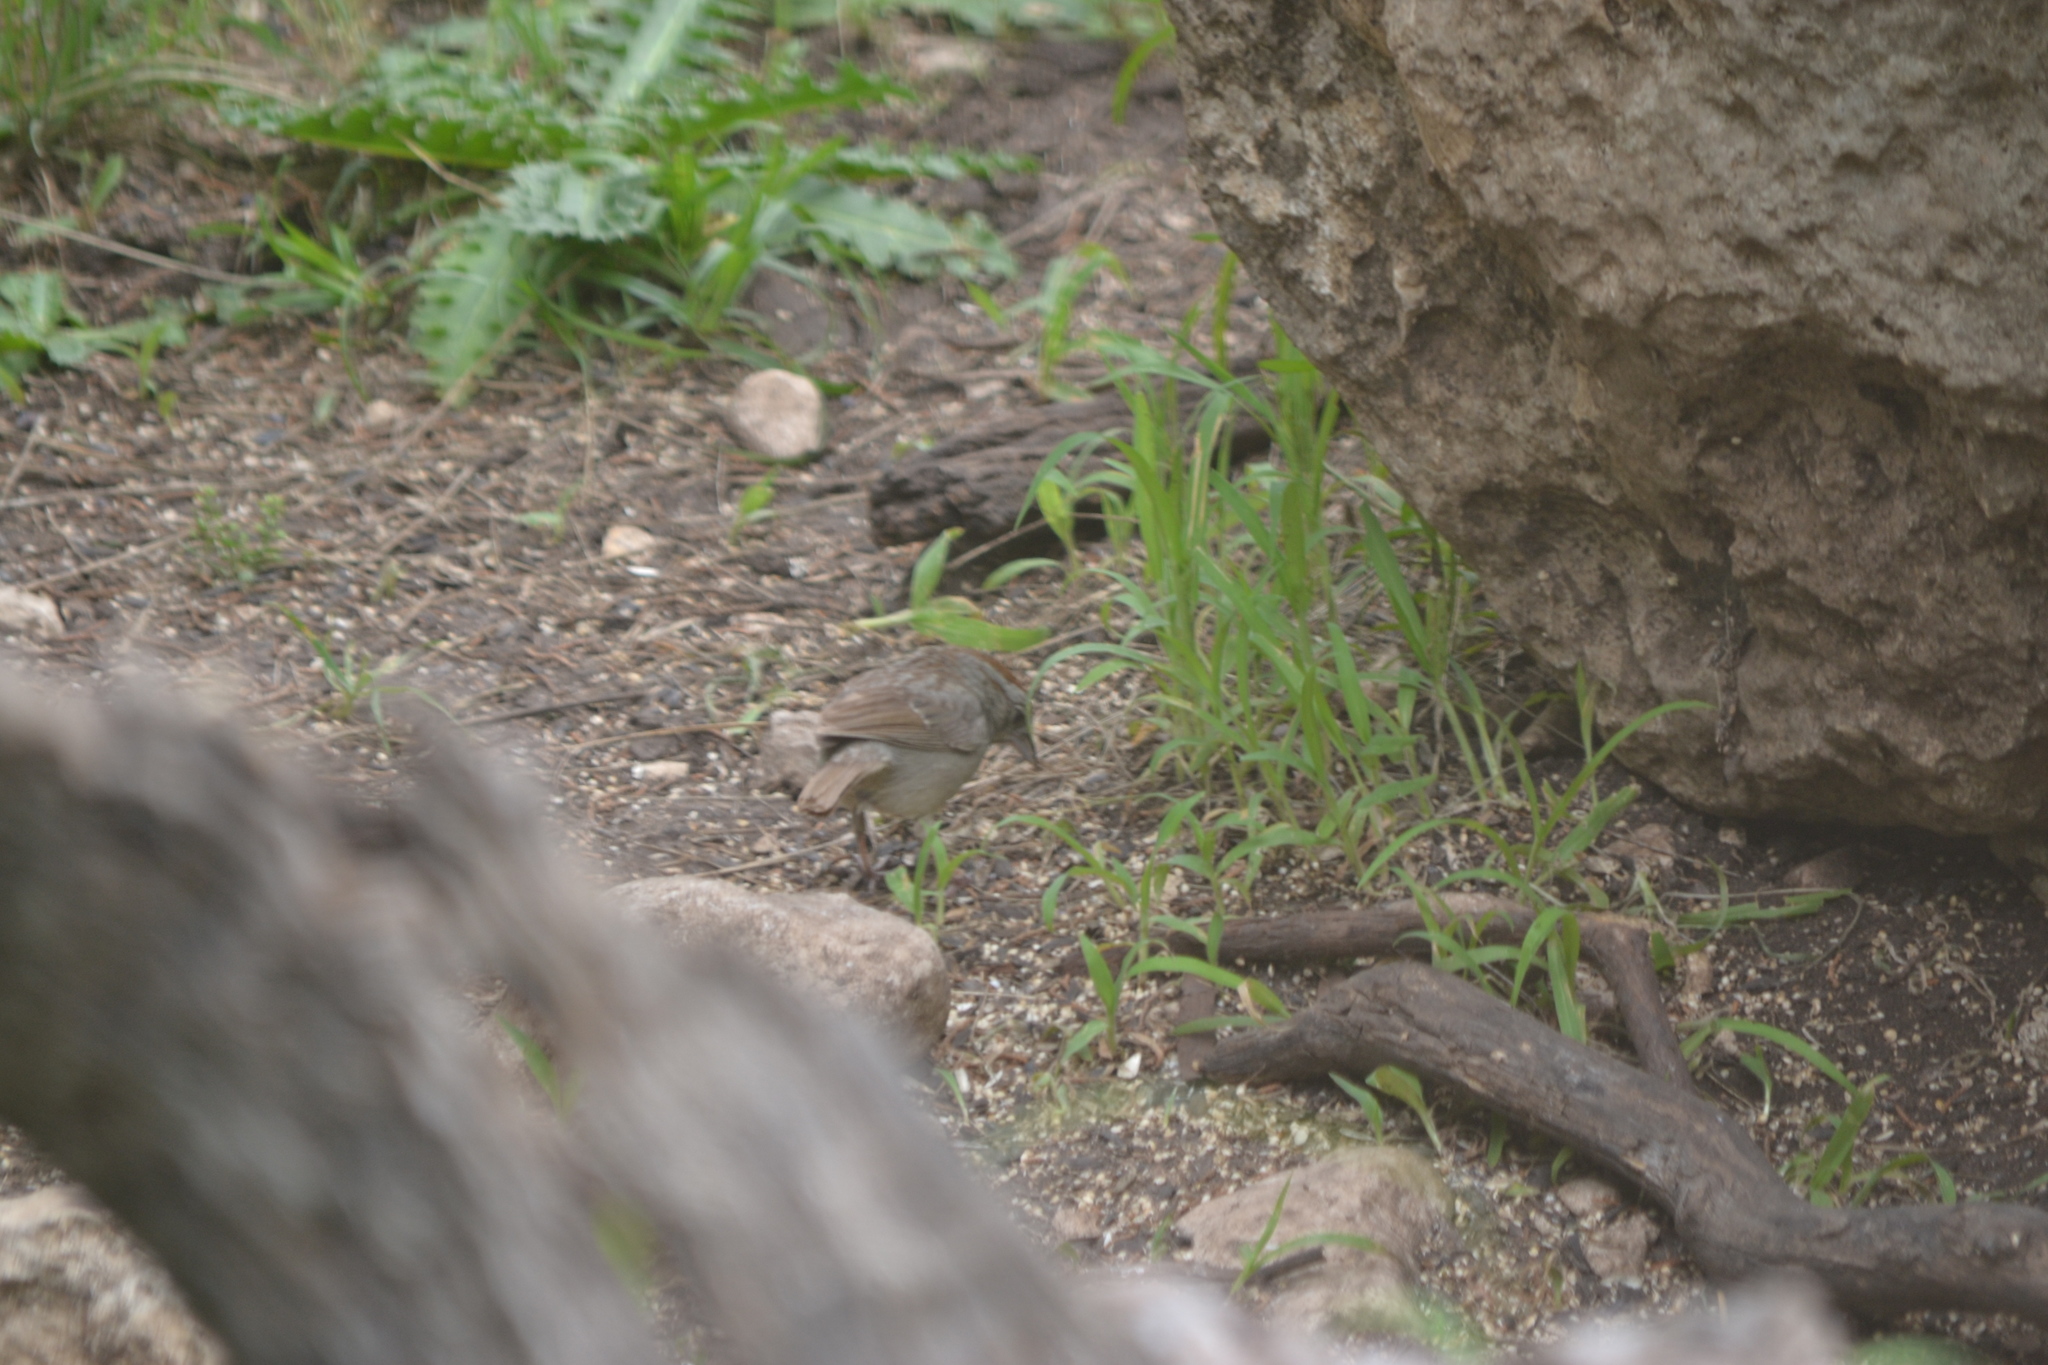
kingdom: Animalia
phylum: Chordata
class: Aves
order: Passeriformes
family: Passerellidae
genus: Aimophila
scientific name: Aimophila ruficeps
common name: Rufous-crowned sparrow
